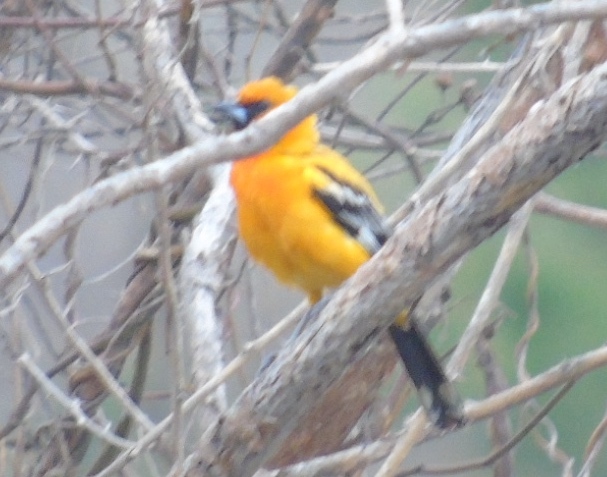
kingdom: Animalia
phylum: Chordata
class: Aves
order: Passeriformes
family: Icteridae
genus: Icterus
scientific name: Icterus pustulatus
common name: Streak-backed oriole
